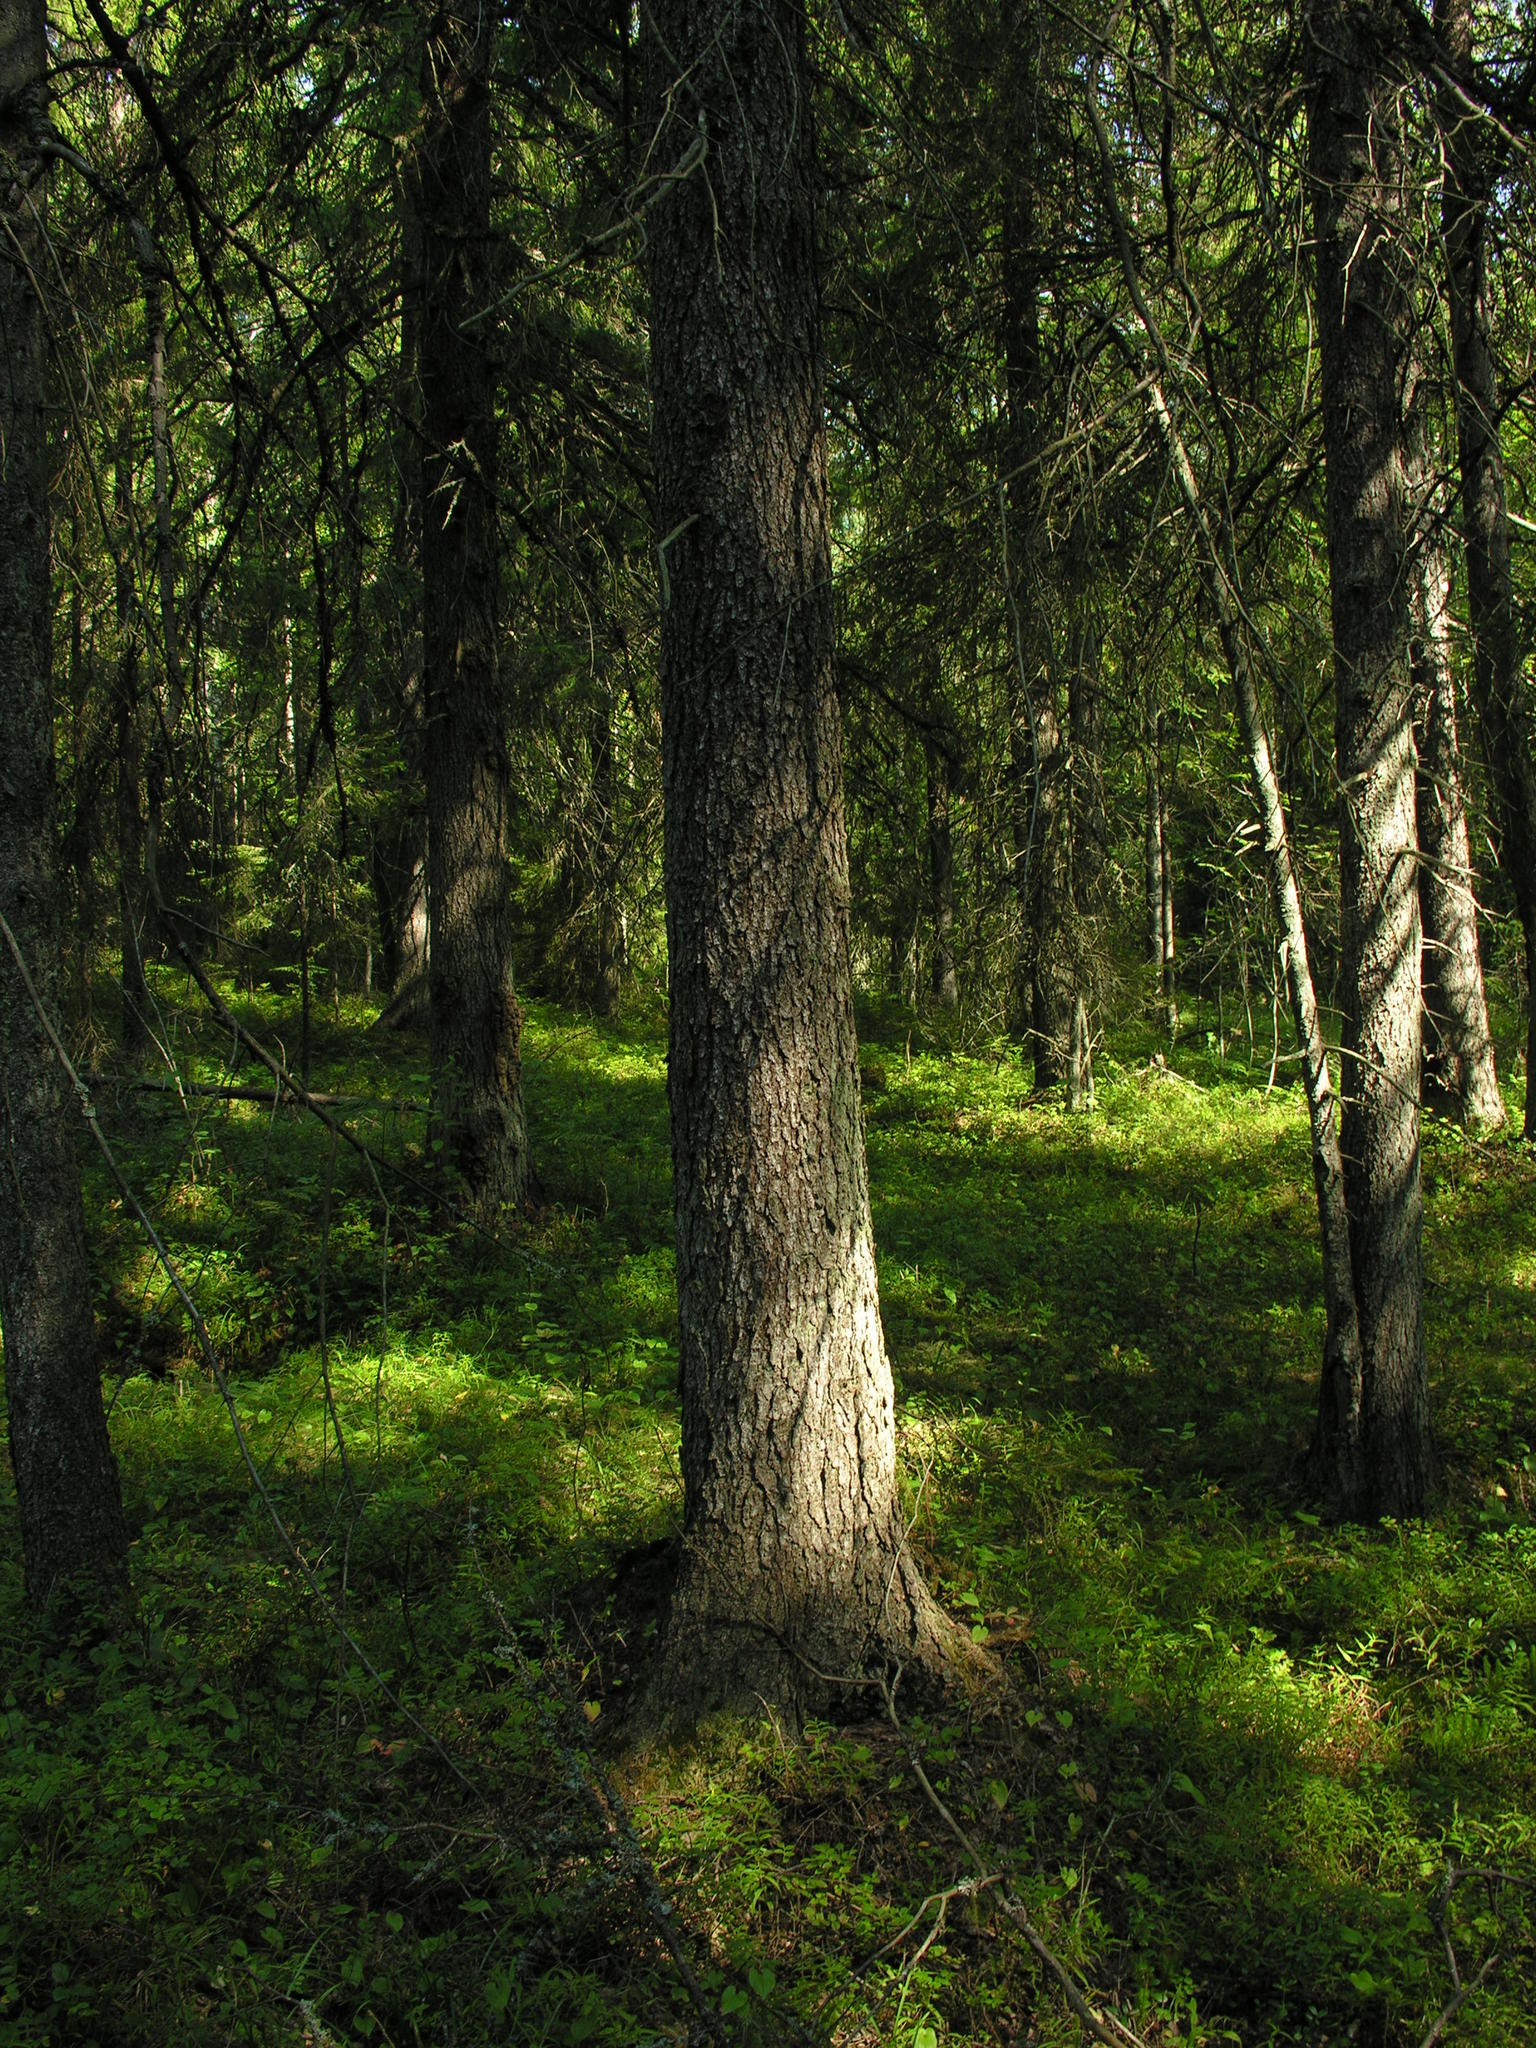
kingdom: Plantae
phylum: Tracheophyta
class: Pinopsida
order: Pinales
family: Pinaceae
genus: Picea
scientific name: Picea abies
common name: Norway spruce
